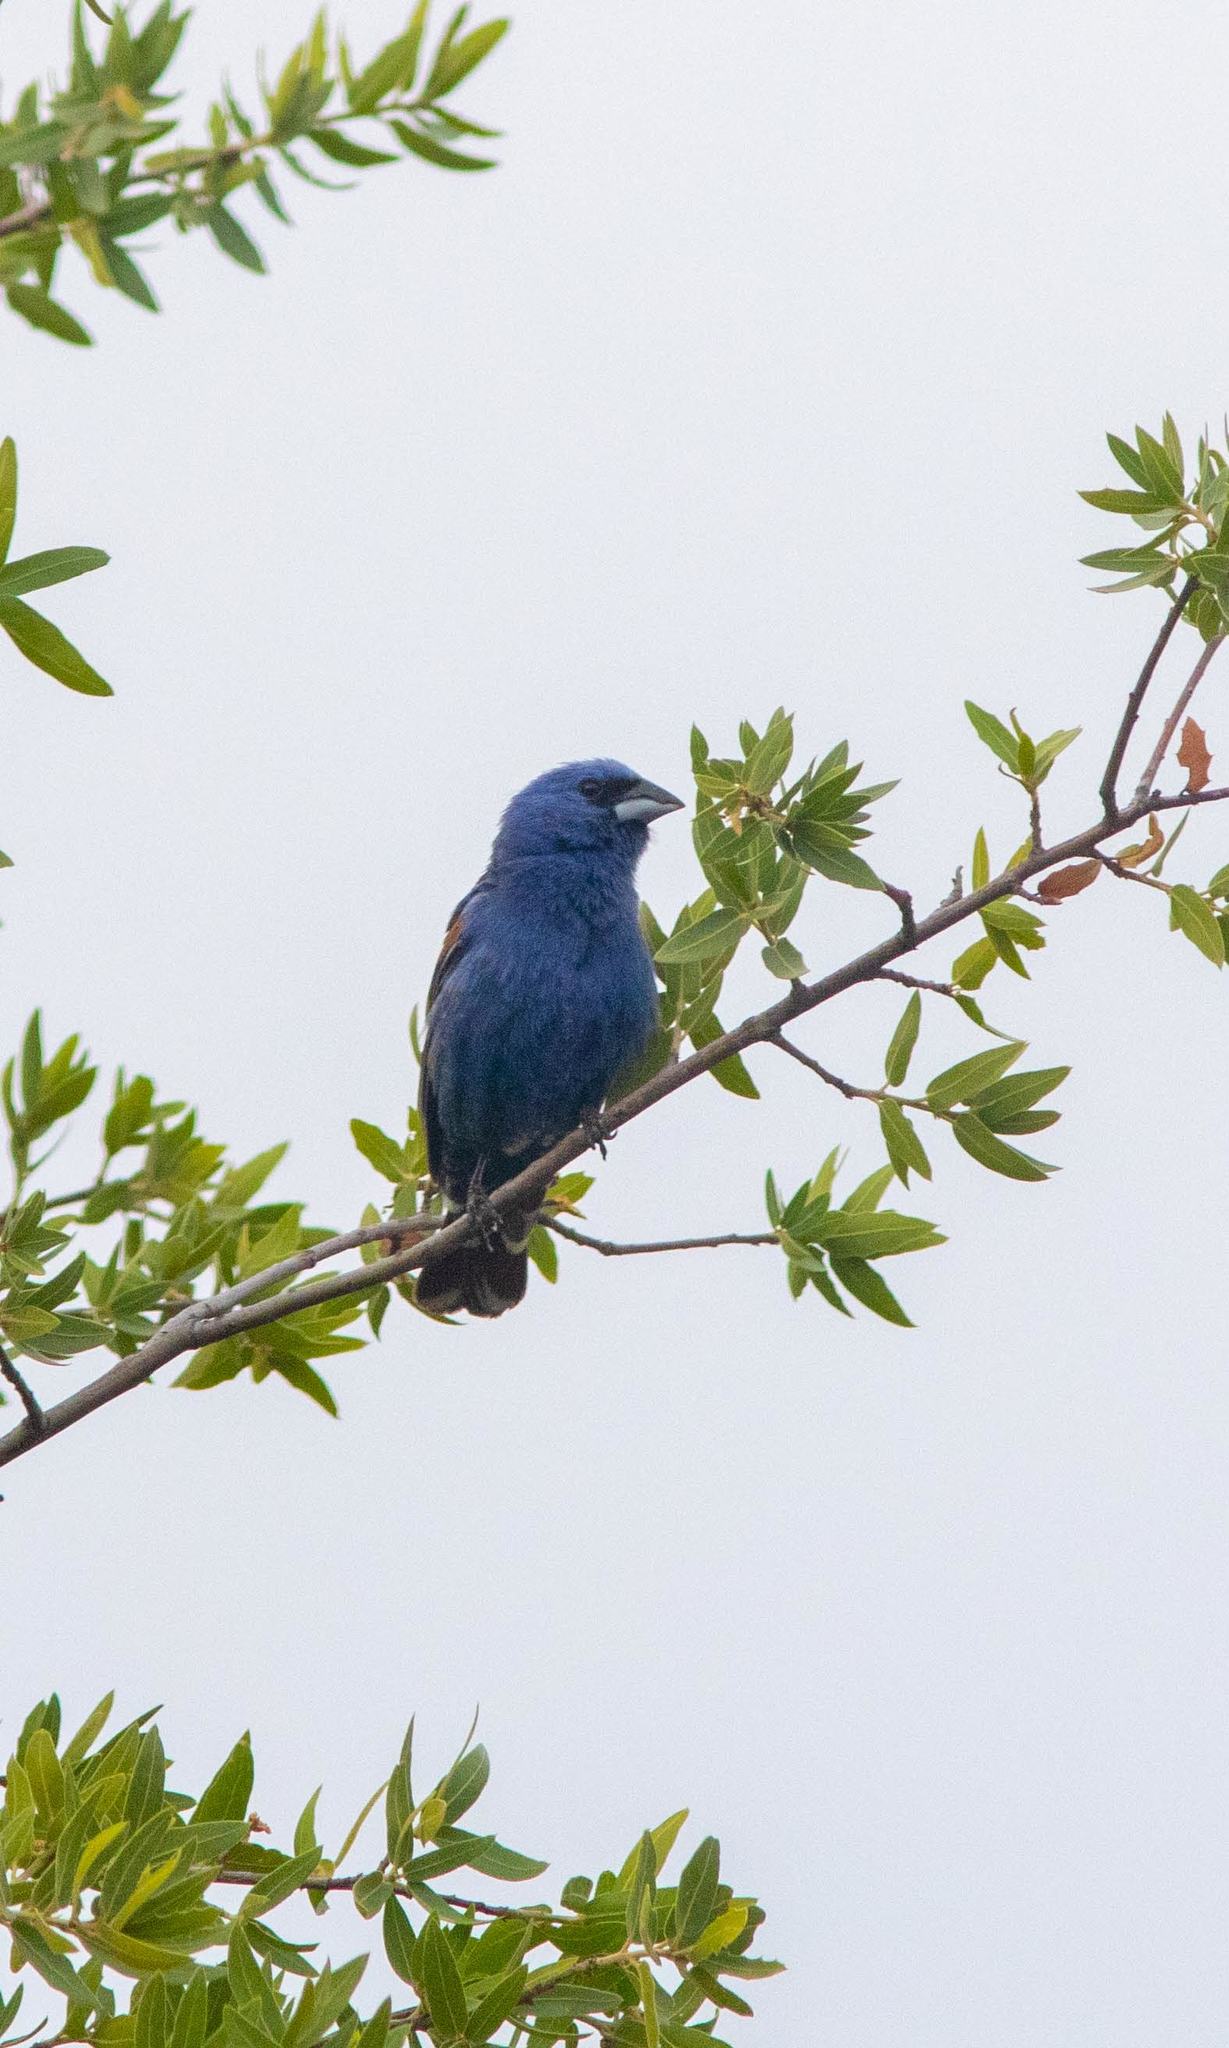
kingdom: Animalia
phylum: Chordata
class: Aves
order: Passeriformes
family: Cardinalidae
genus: Passerina
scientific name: Passerina caerulea
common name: Blue grosbeak
